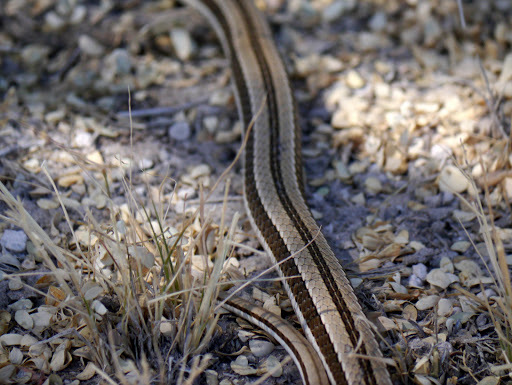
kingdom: Animalia
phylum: Chordata
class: Squamata
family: Psammophiidae
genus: Psammophylax
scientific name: Psammophylax tritaeniatus
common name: Striped skaapsteker
